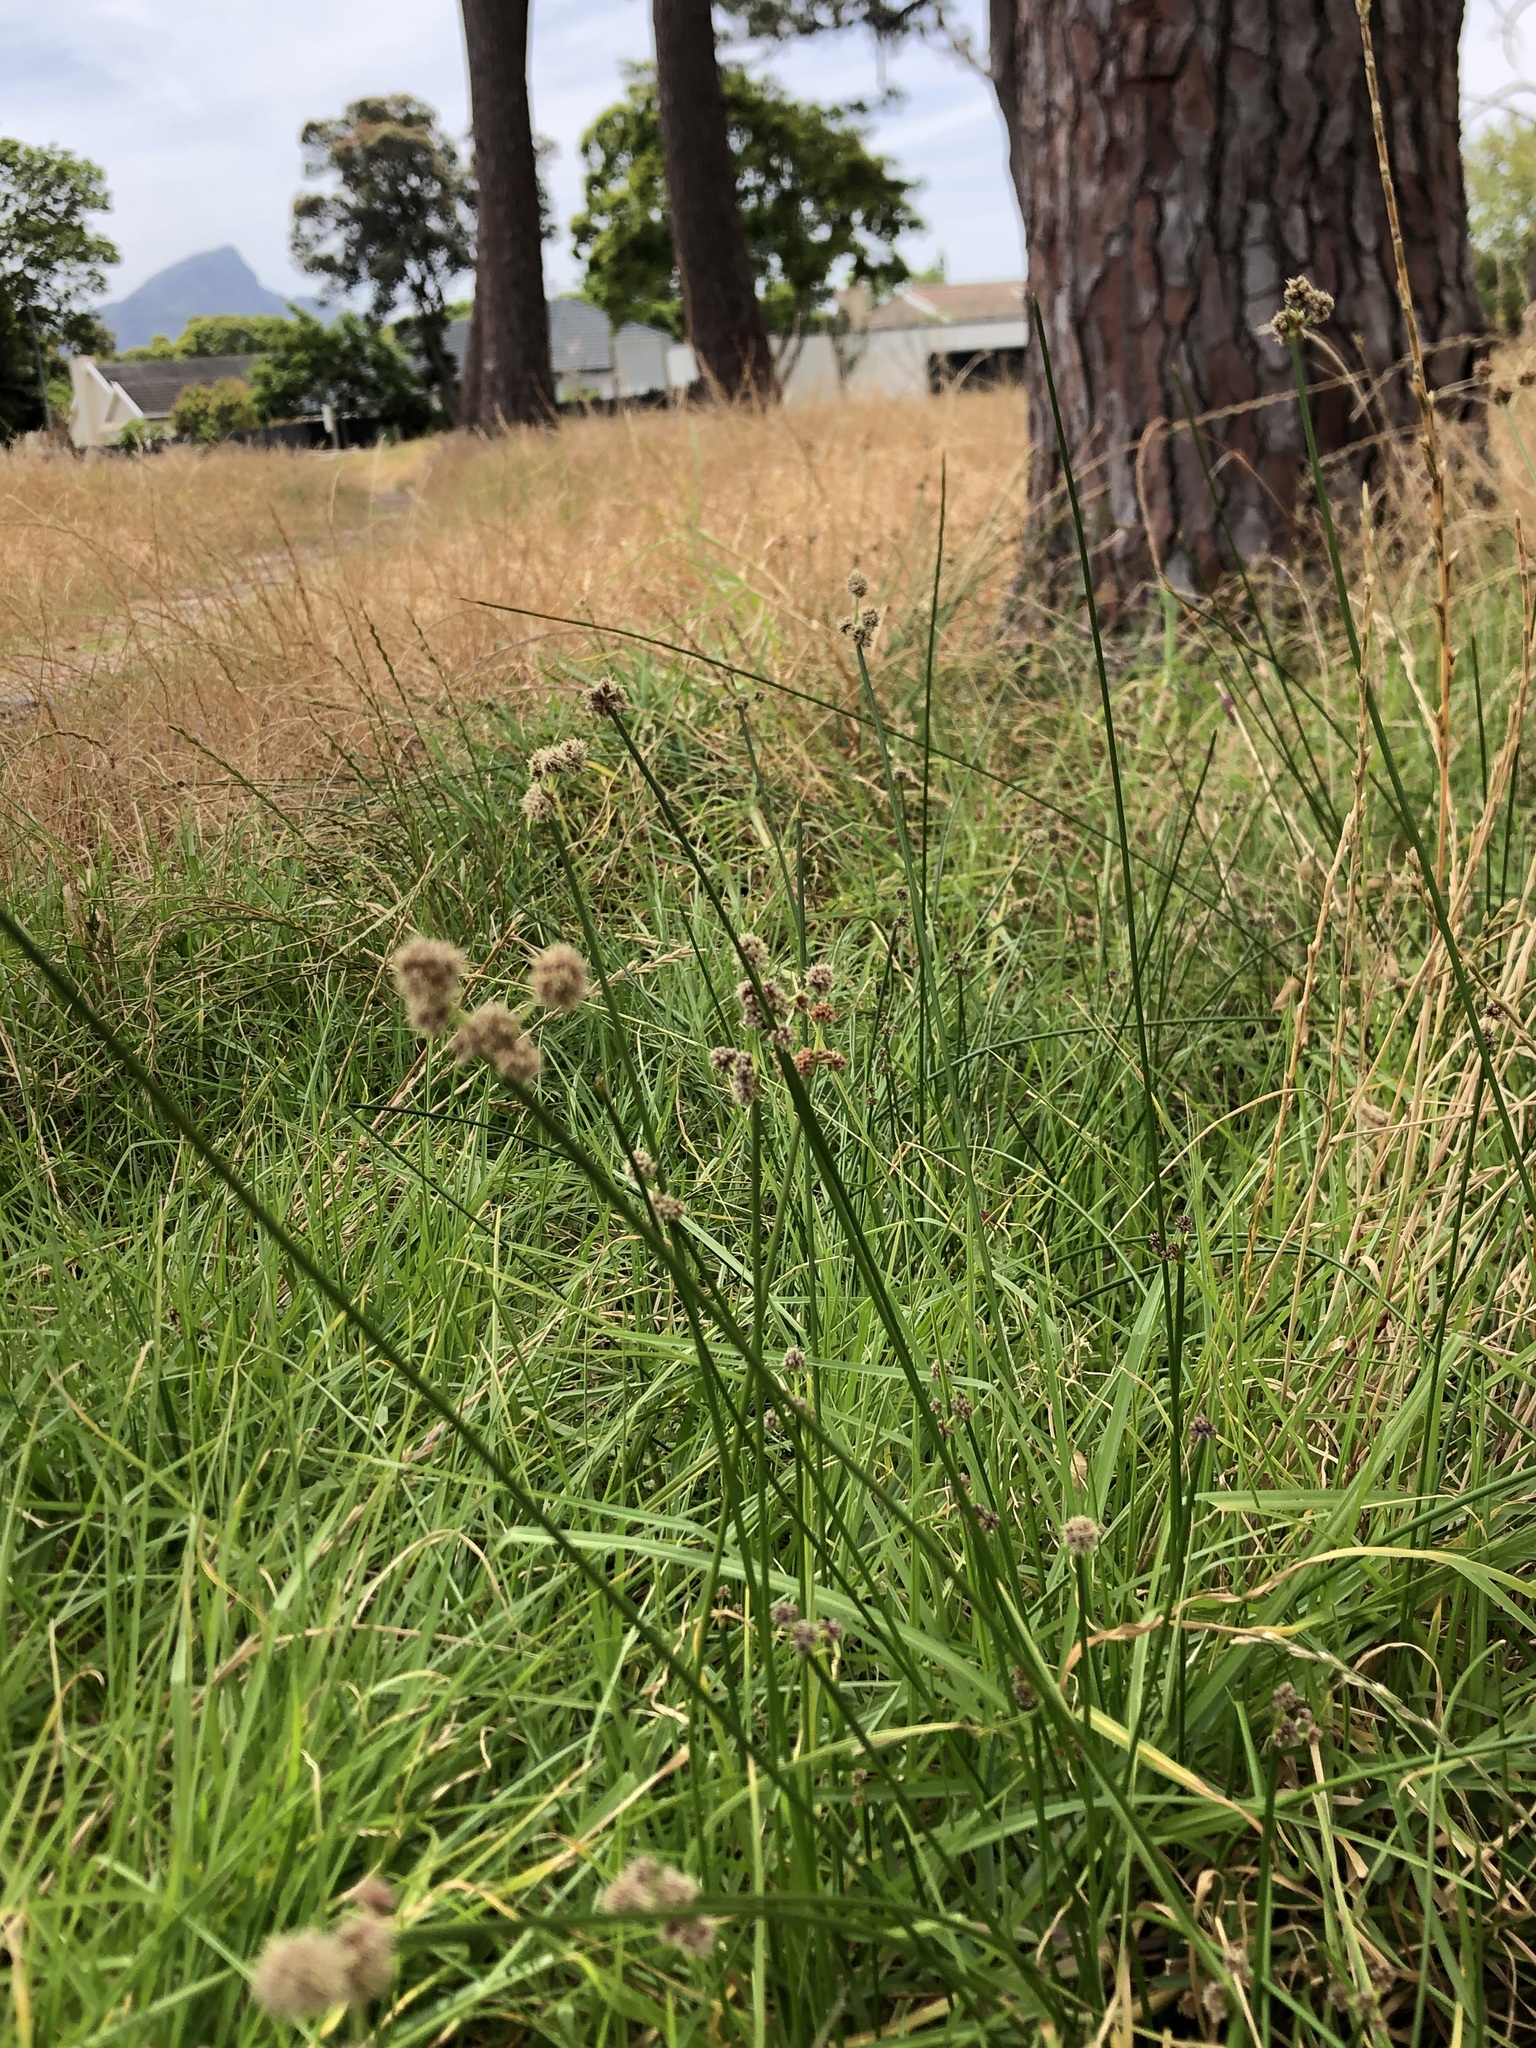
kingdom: Plantae
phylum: Tracheophyta
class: Liliopsida
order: Poales
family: Cyperaceae
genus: Ficinia
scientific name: Ficinia nodosa
